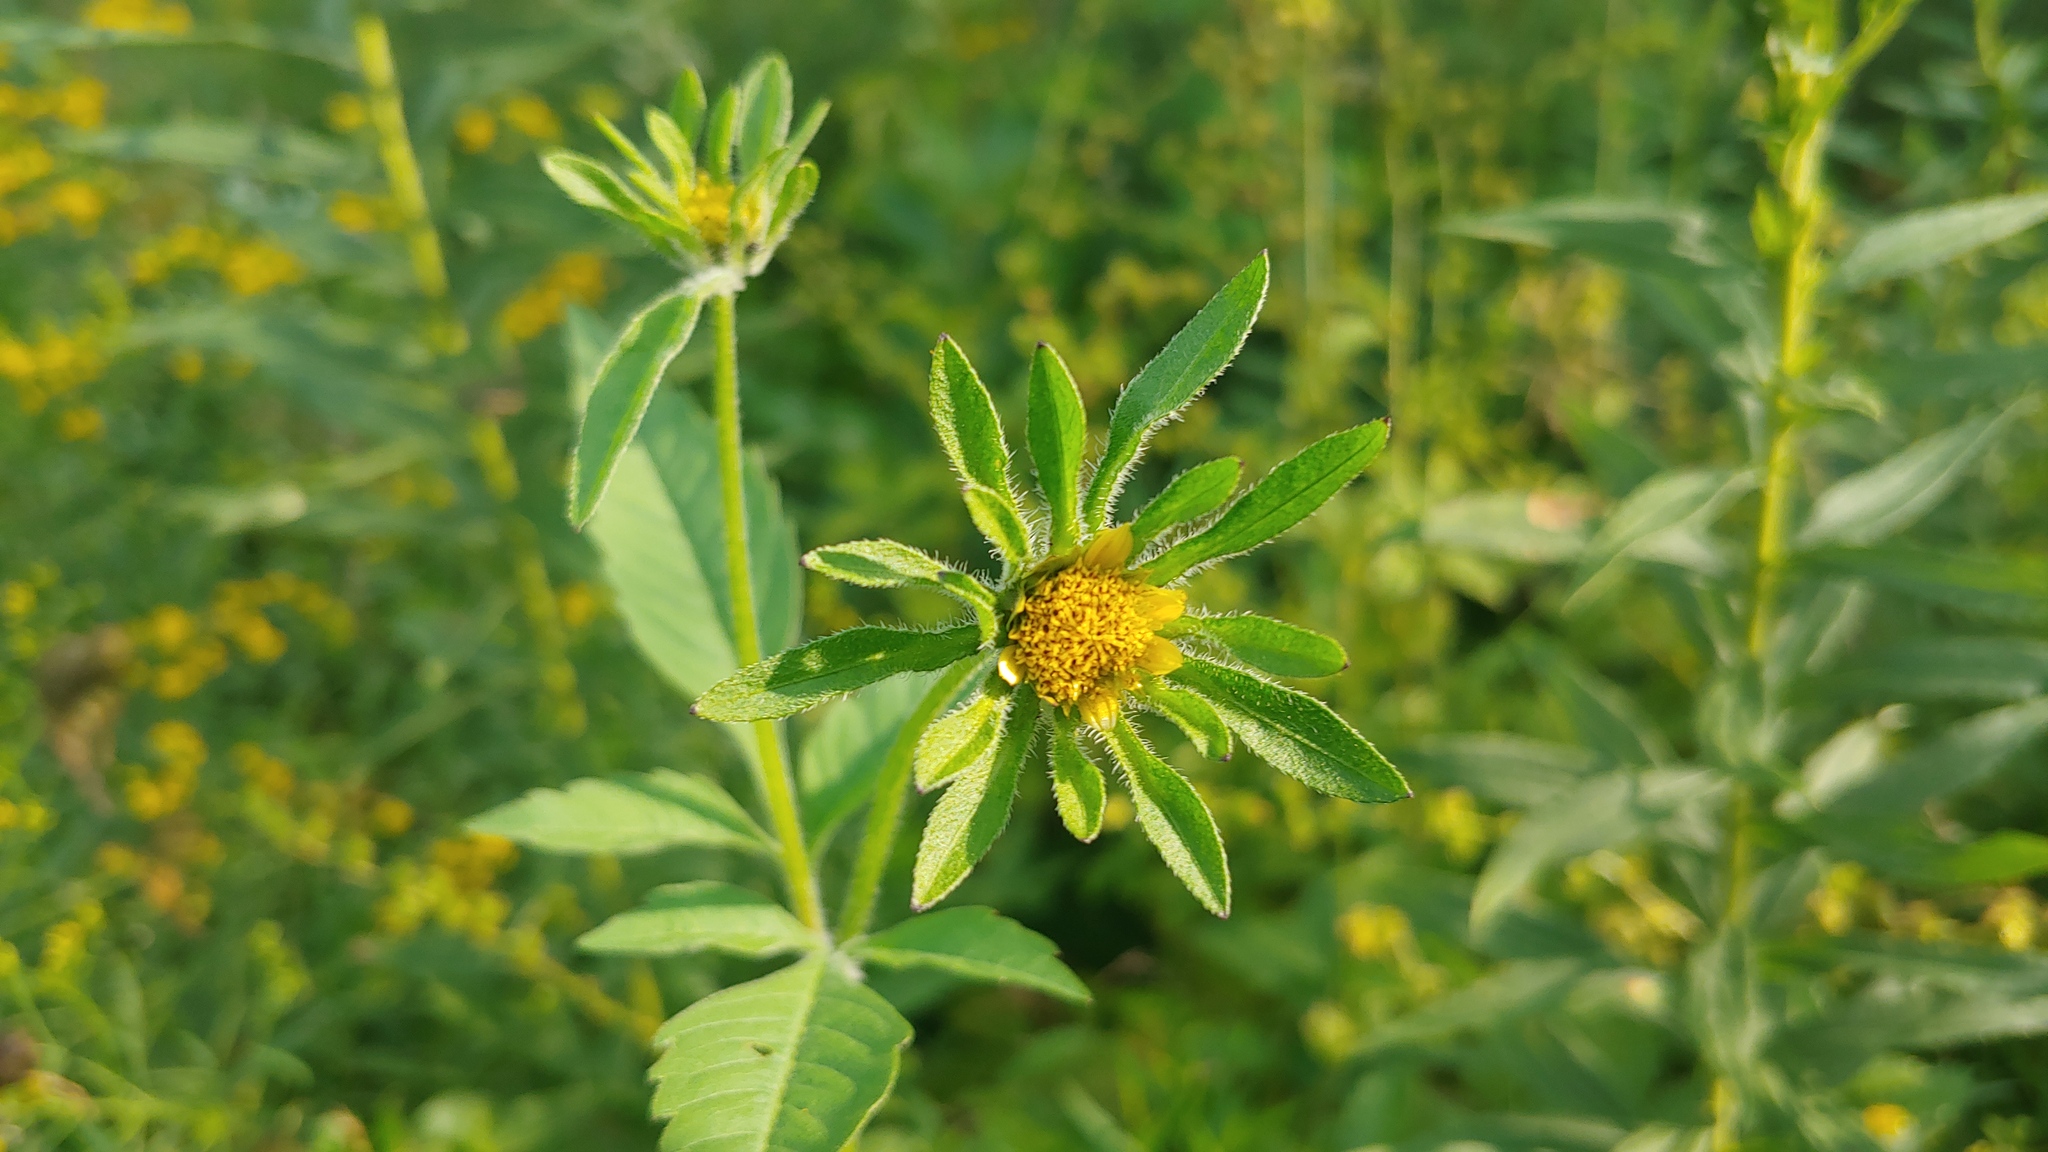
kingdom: Plantae
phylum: Tracheophyta
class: Magnoliopsida
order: Asterales
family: Asteraceae
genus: Bidens
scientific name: Bidens vulgata
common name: Tall beggarticks
